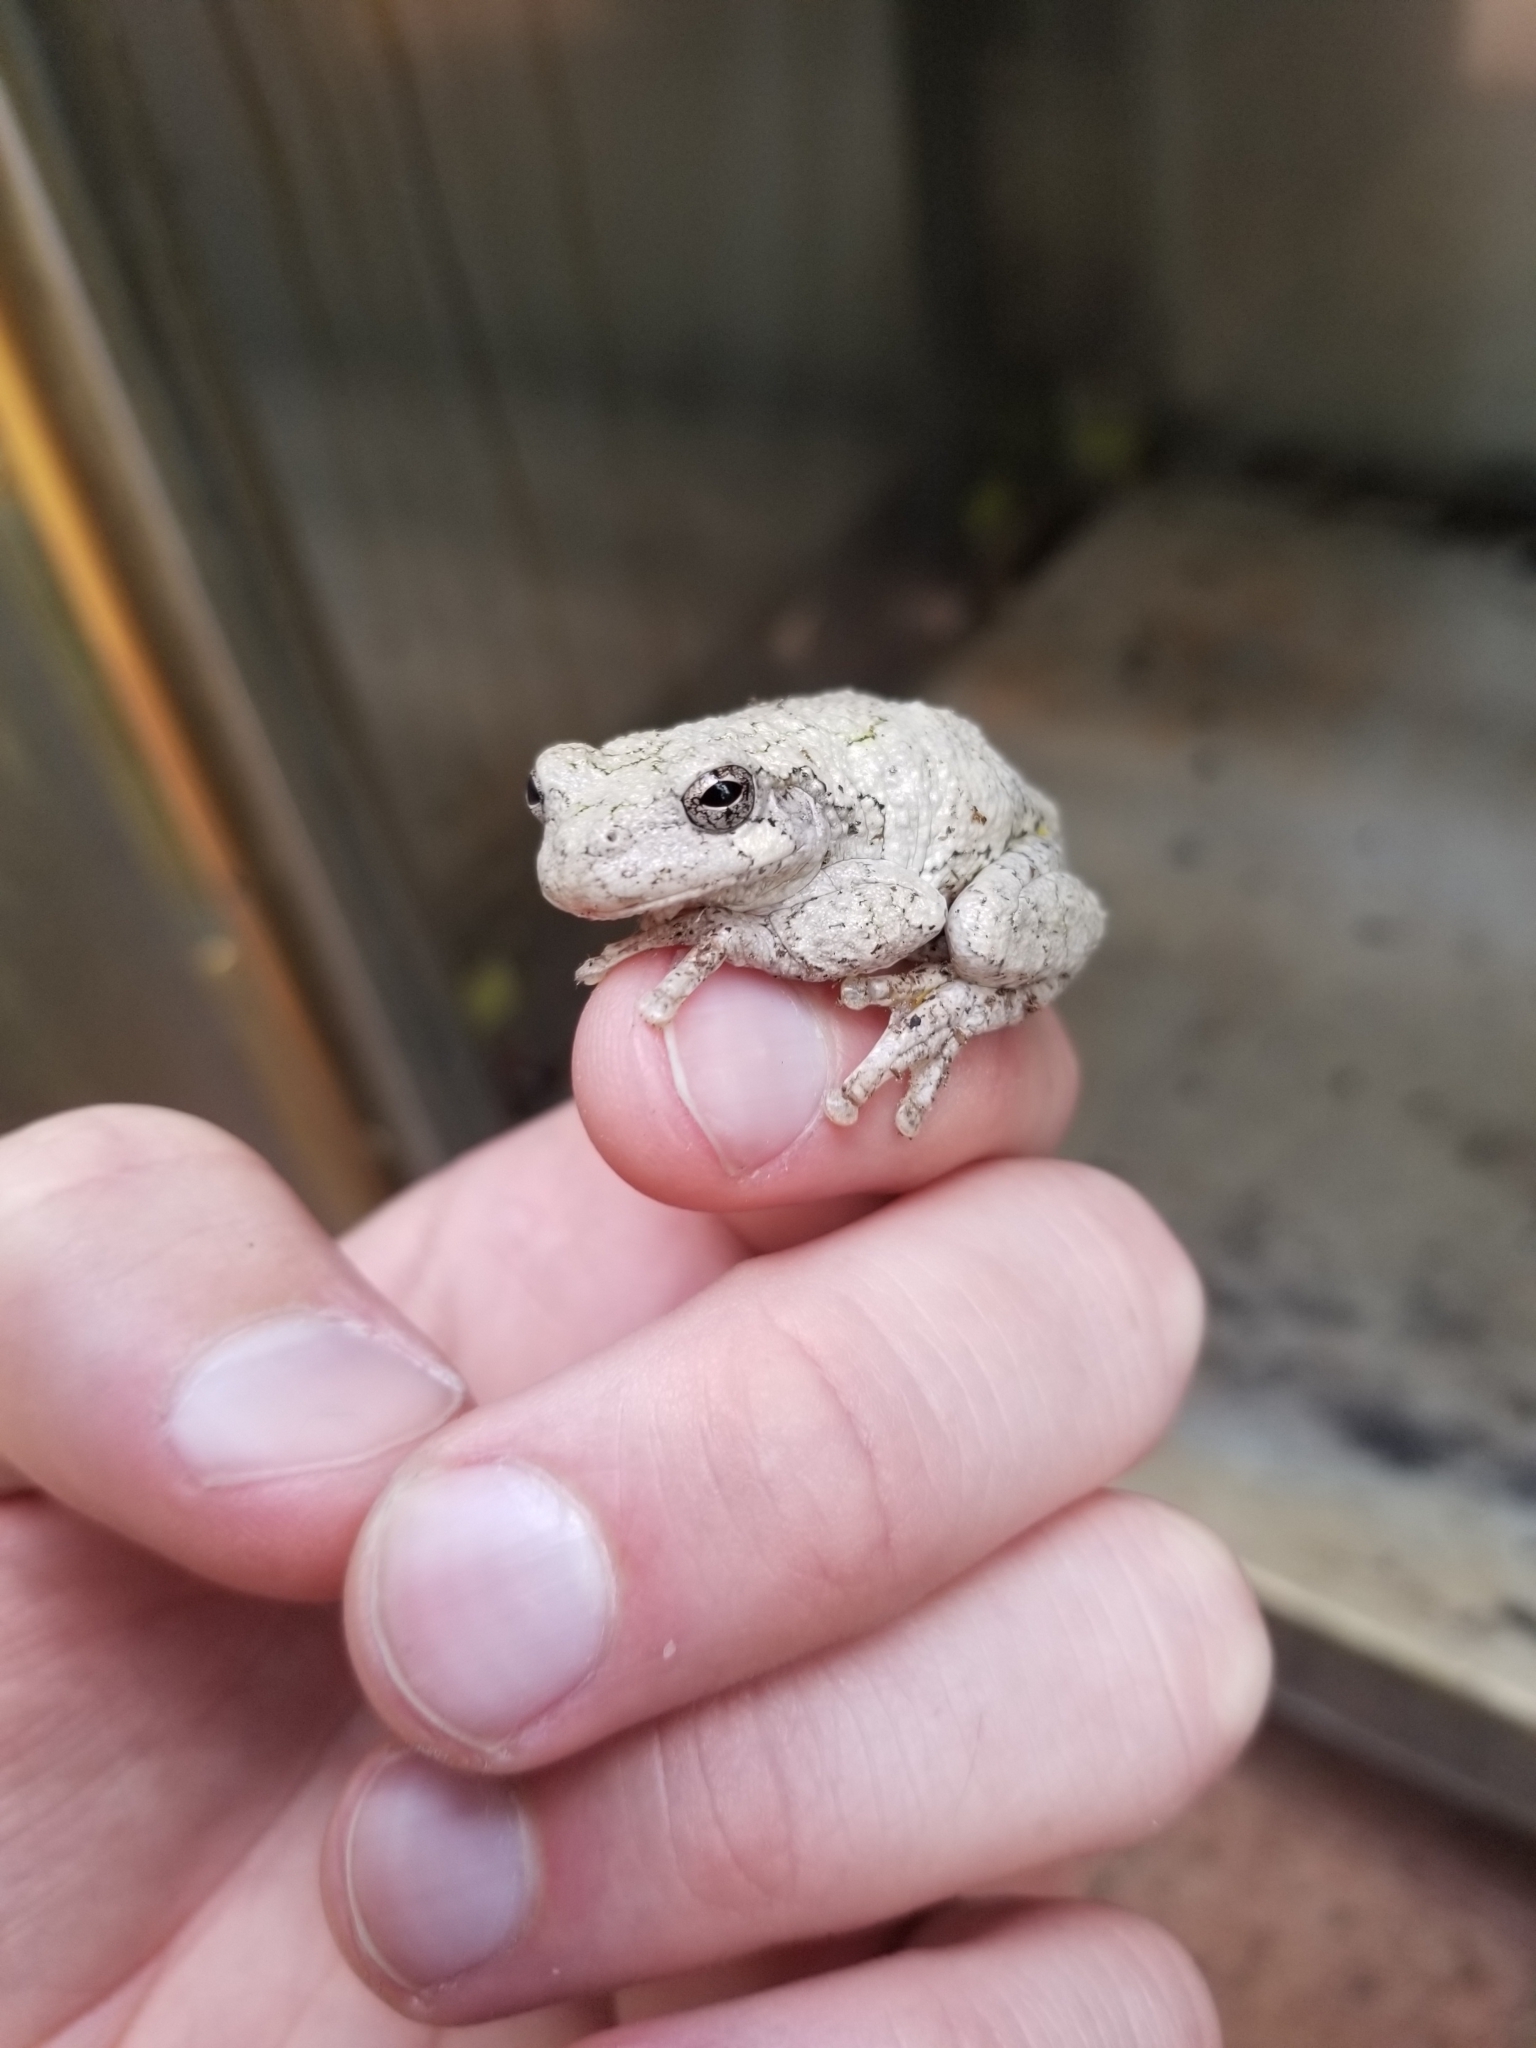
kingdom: Animalia
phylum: Chordata
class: Amphibia
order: Anura
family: Hylidae
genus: Dryophytes
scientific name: Dryophytes versicolor
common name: Gray treefrog
